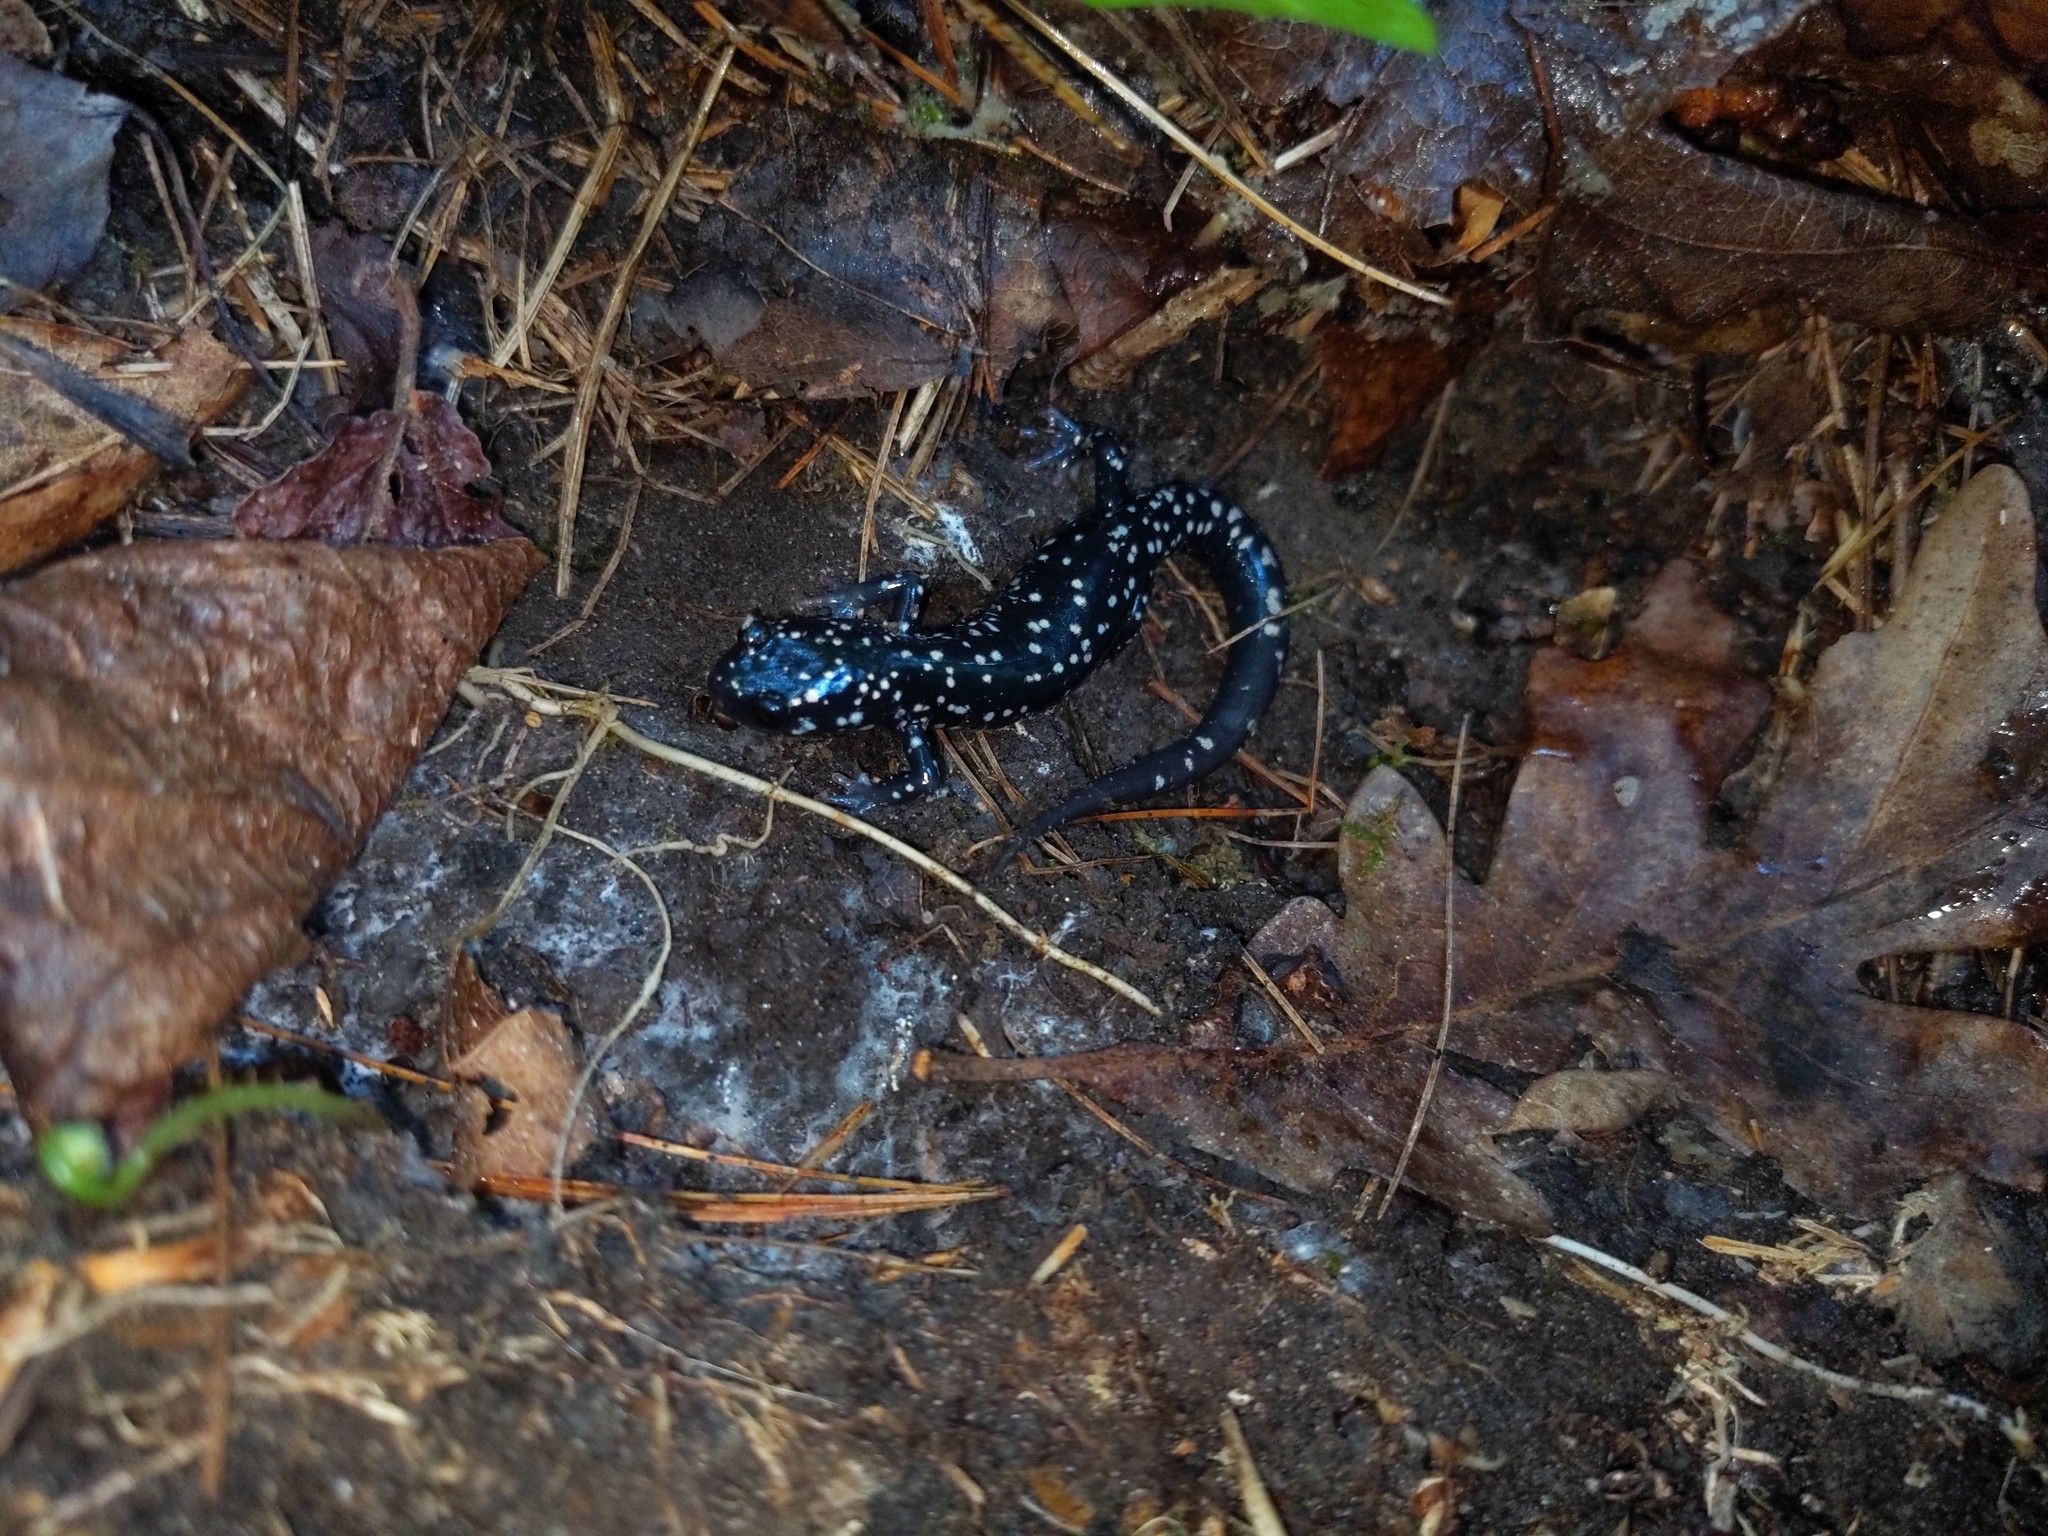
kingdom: Animalia
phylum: Chordata
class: Amphibia
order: Caudata
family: Plethodontidae
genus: Plethodon
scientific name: Plethodon glutinosus
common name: Northern slimy salamander
